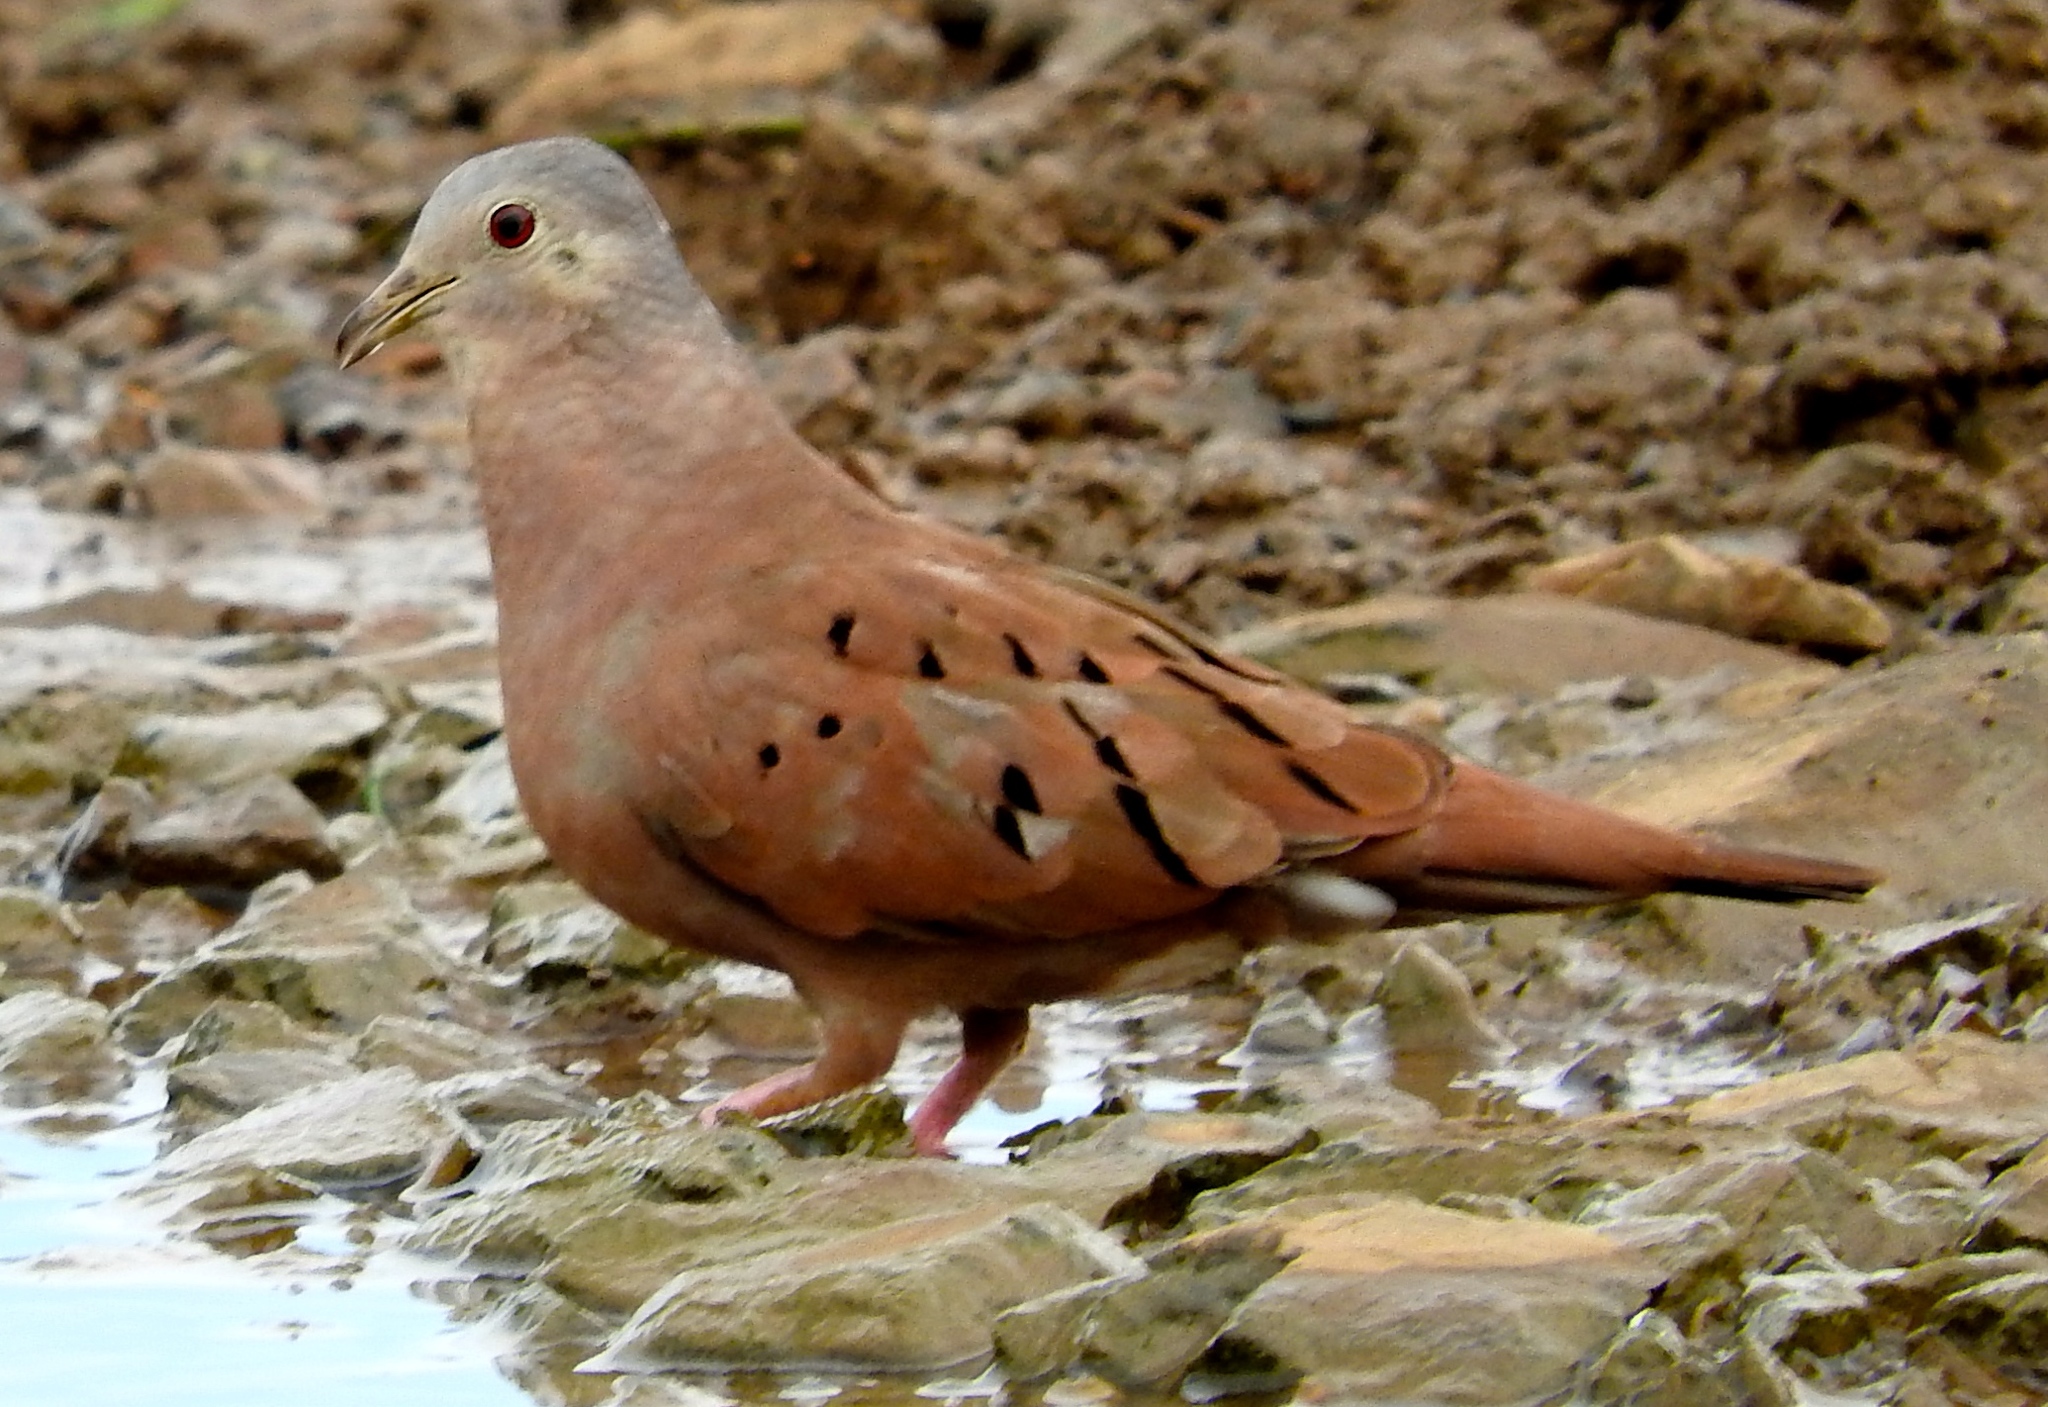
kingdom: Animalia
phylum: Chordata
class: Aves
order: Columbiformes
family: Columbidae
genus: Columbina
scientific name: Columbina talpacoti
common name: Ruddy ground dove
